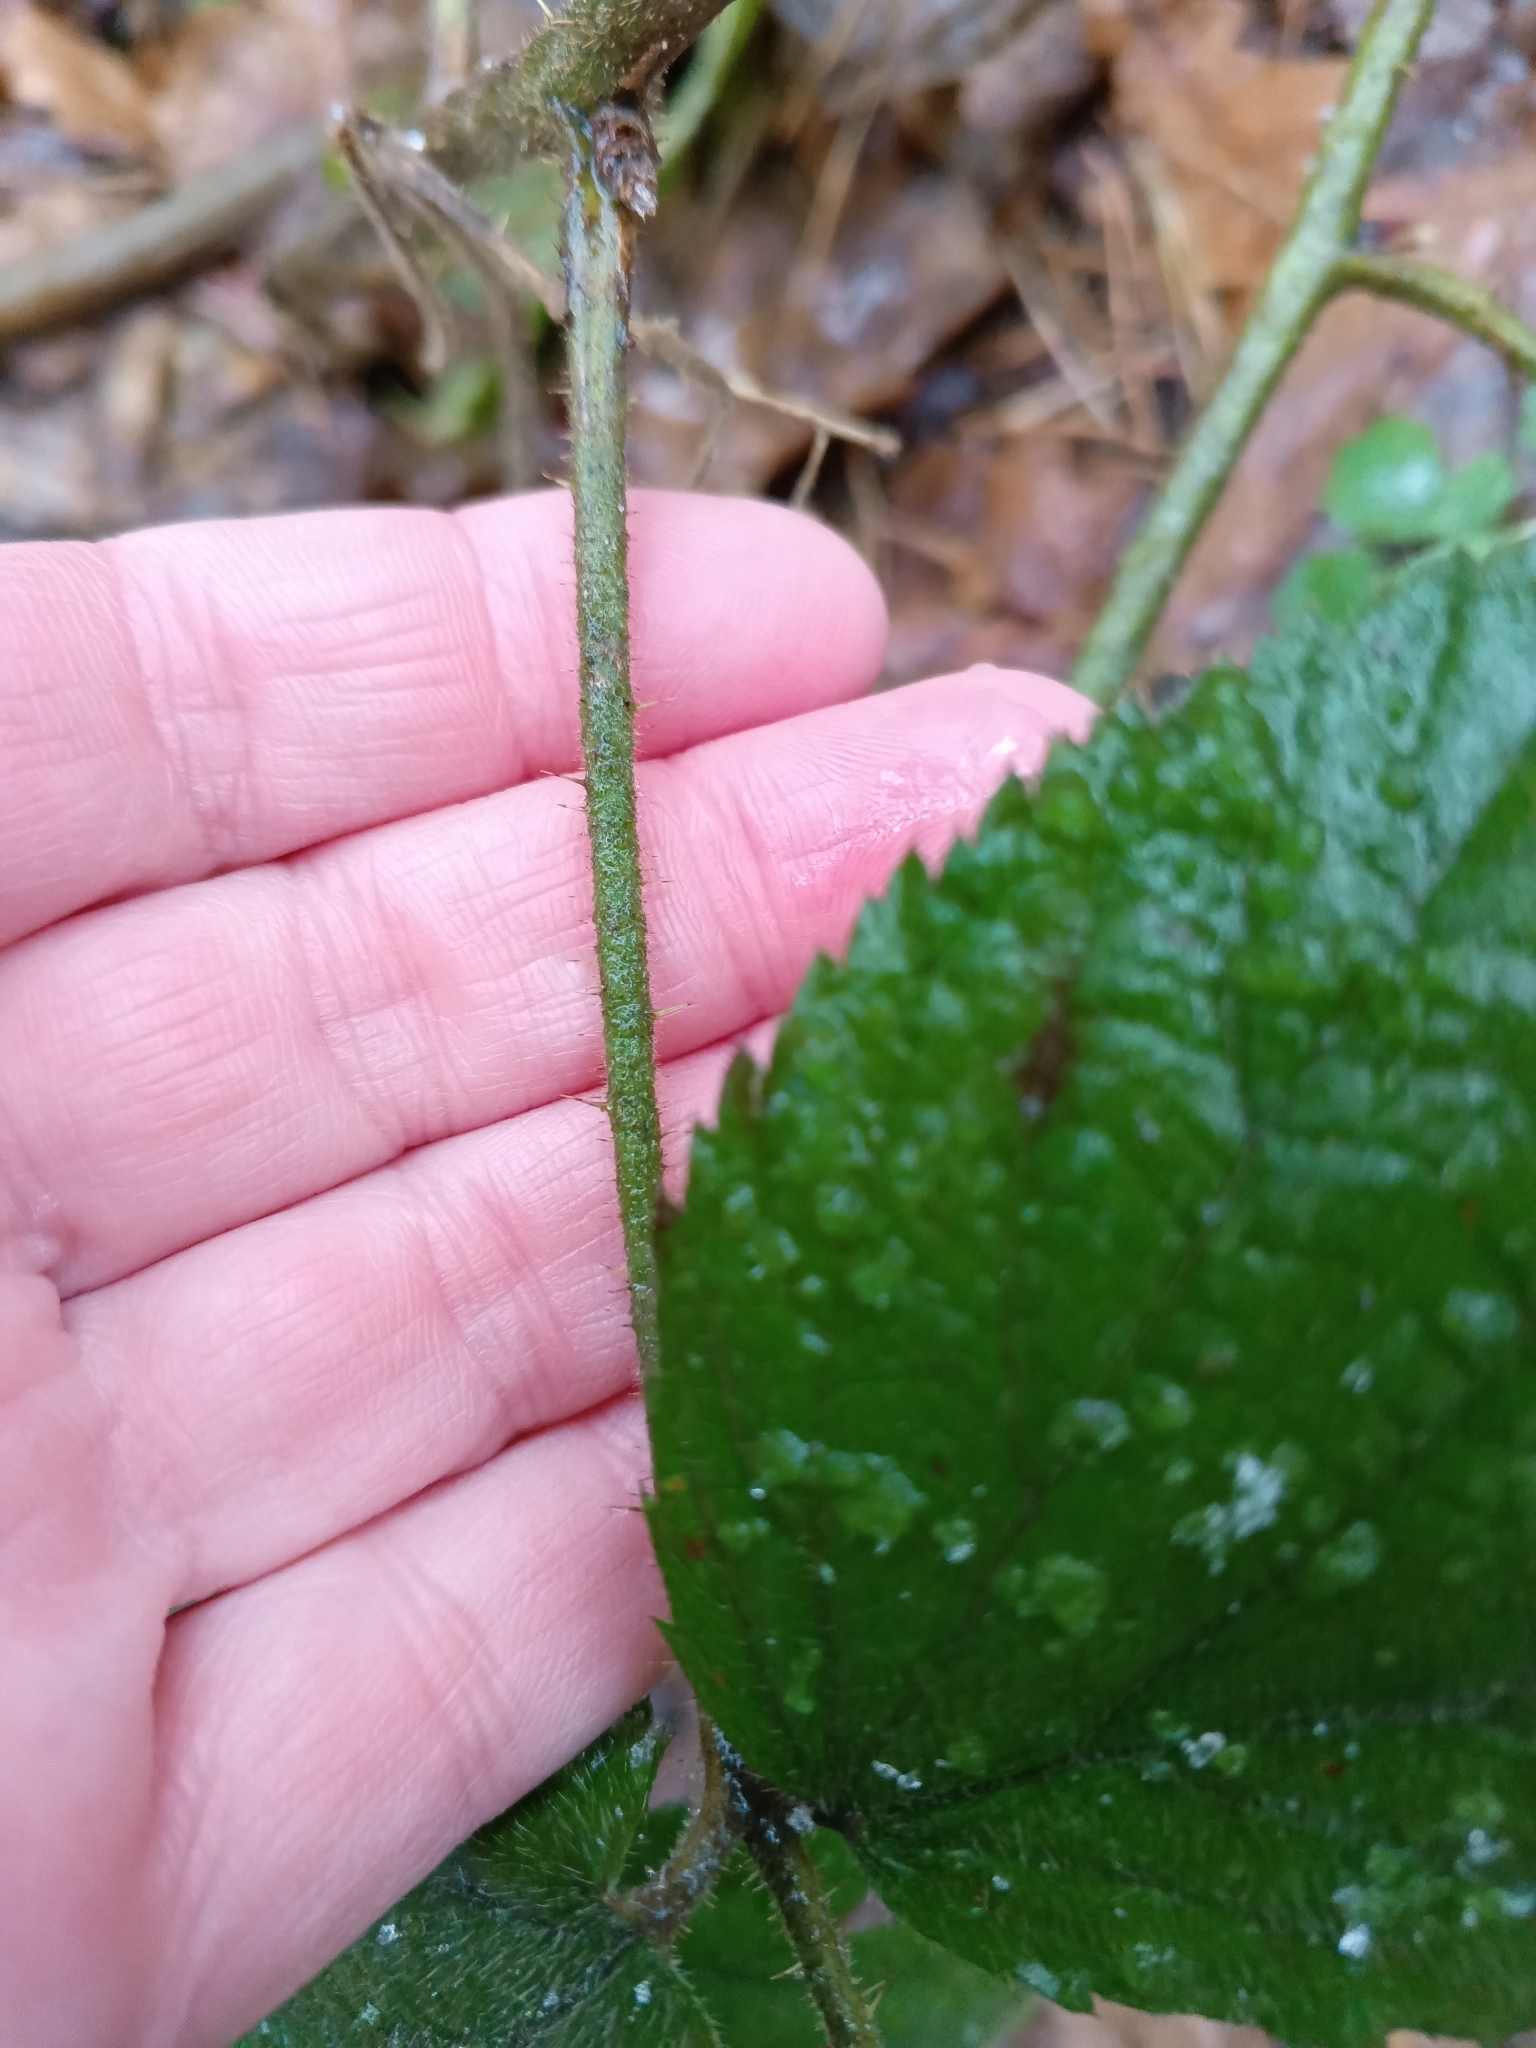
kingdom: Plantae
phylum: Tracheophyta
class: Magnoliopsida
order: Rosales
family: Rosaceae
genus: Rubus
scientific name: Rubus nigricans
